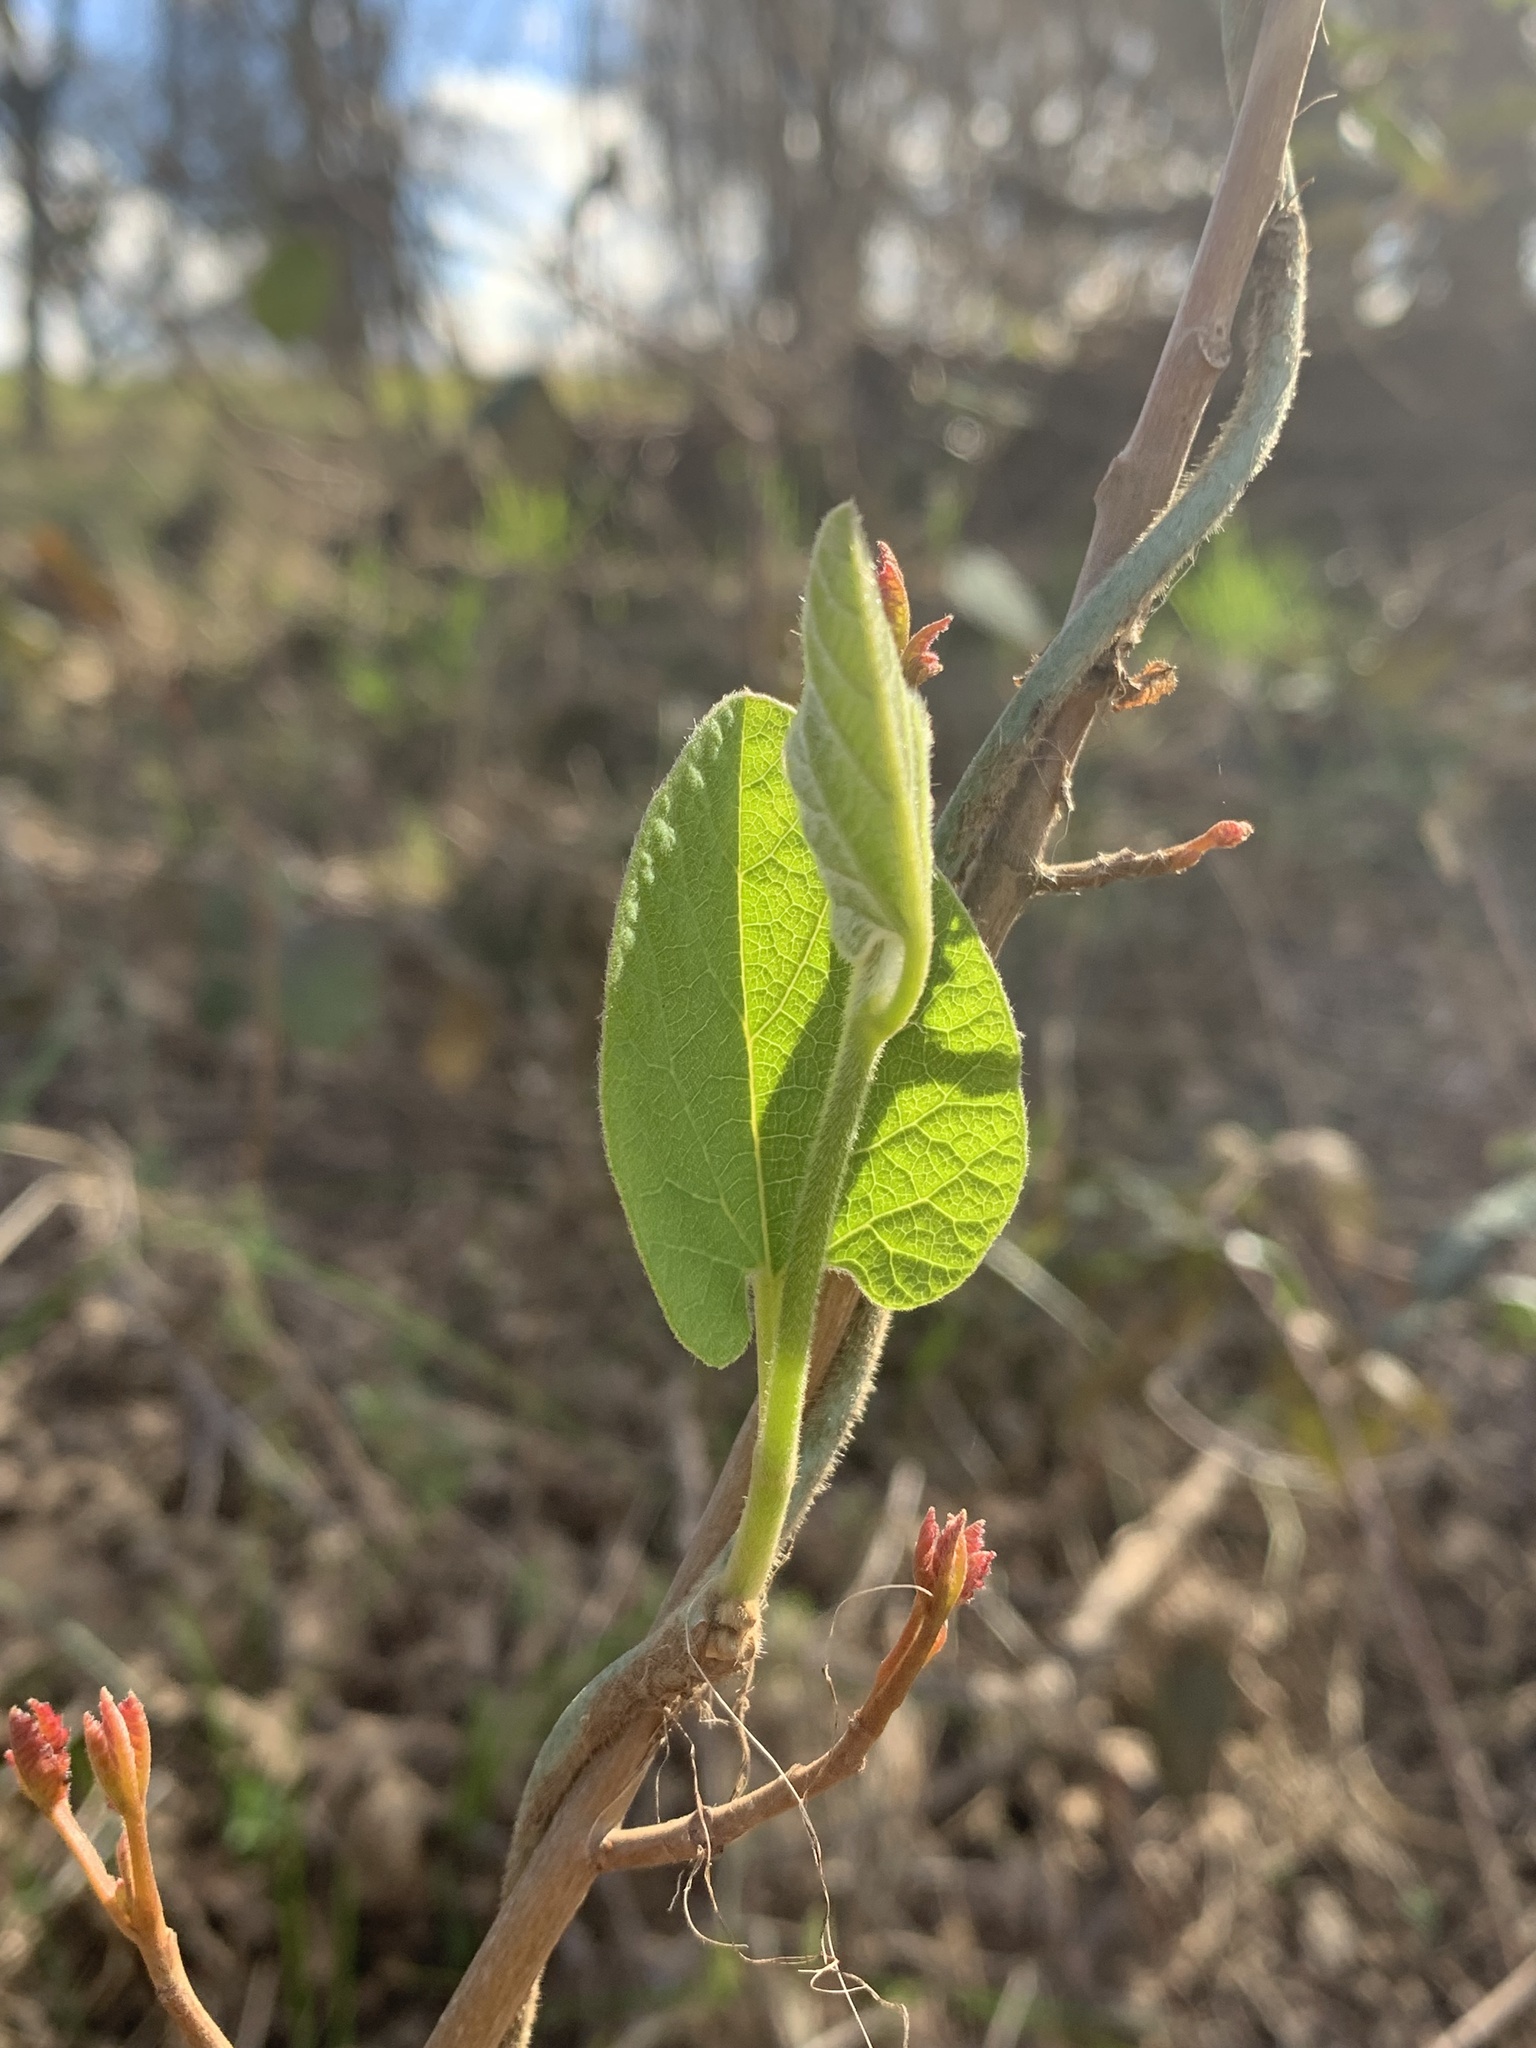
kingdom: Plantae
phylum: Tracheophyta
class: Magnoliopsida
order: Piperales
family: Aristolochiaceae
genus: Isotrema
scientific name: Isotrema californicum
